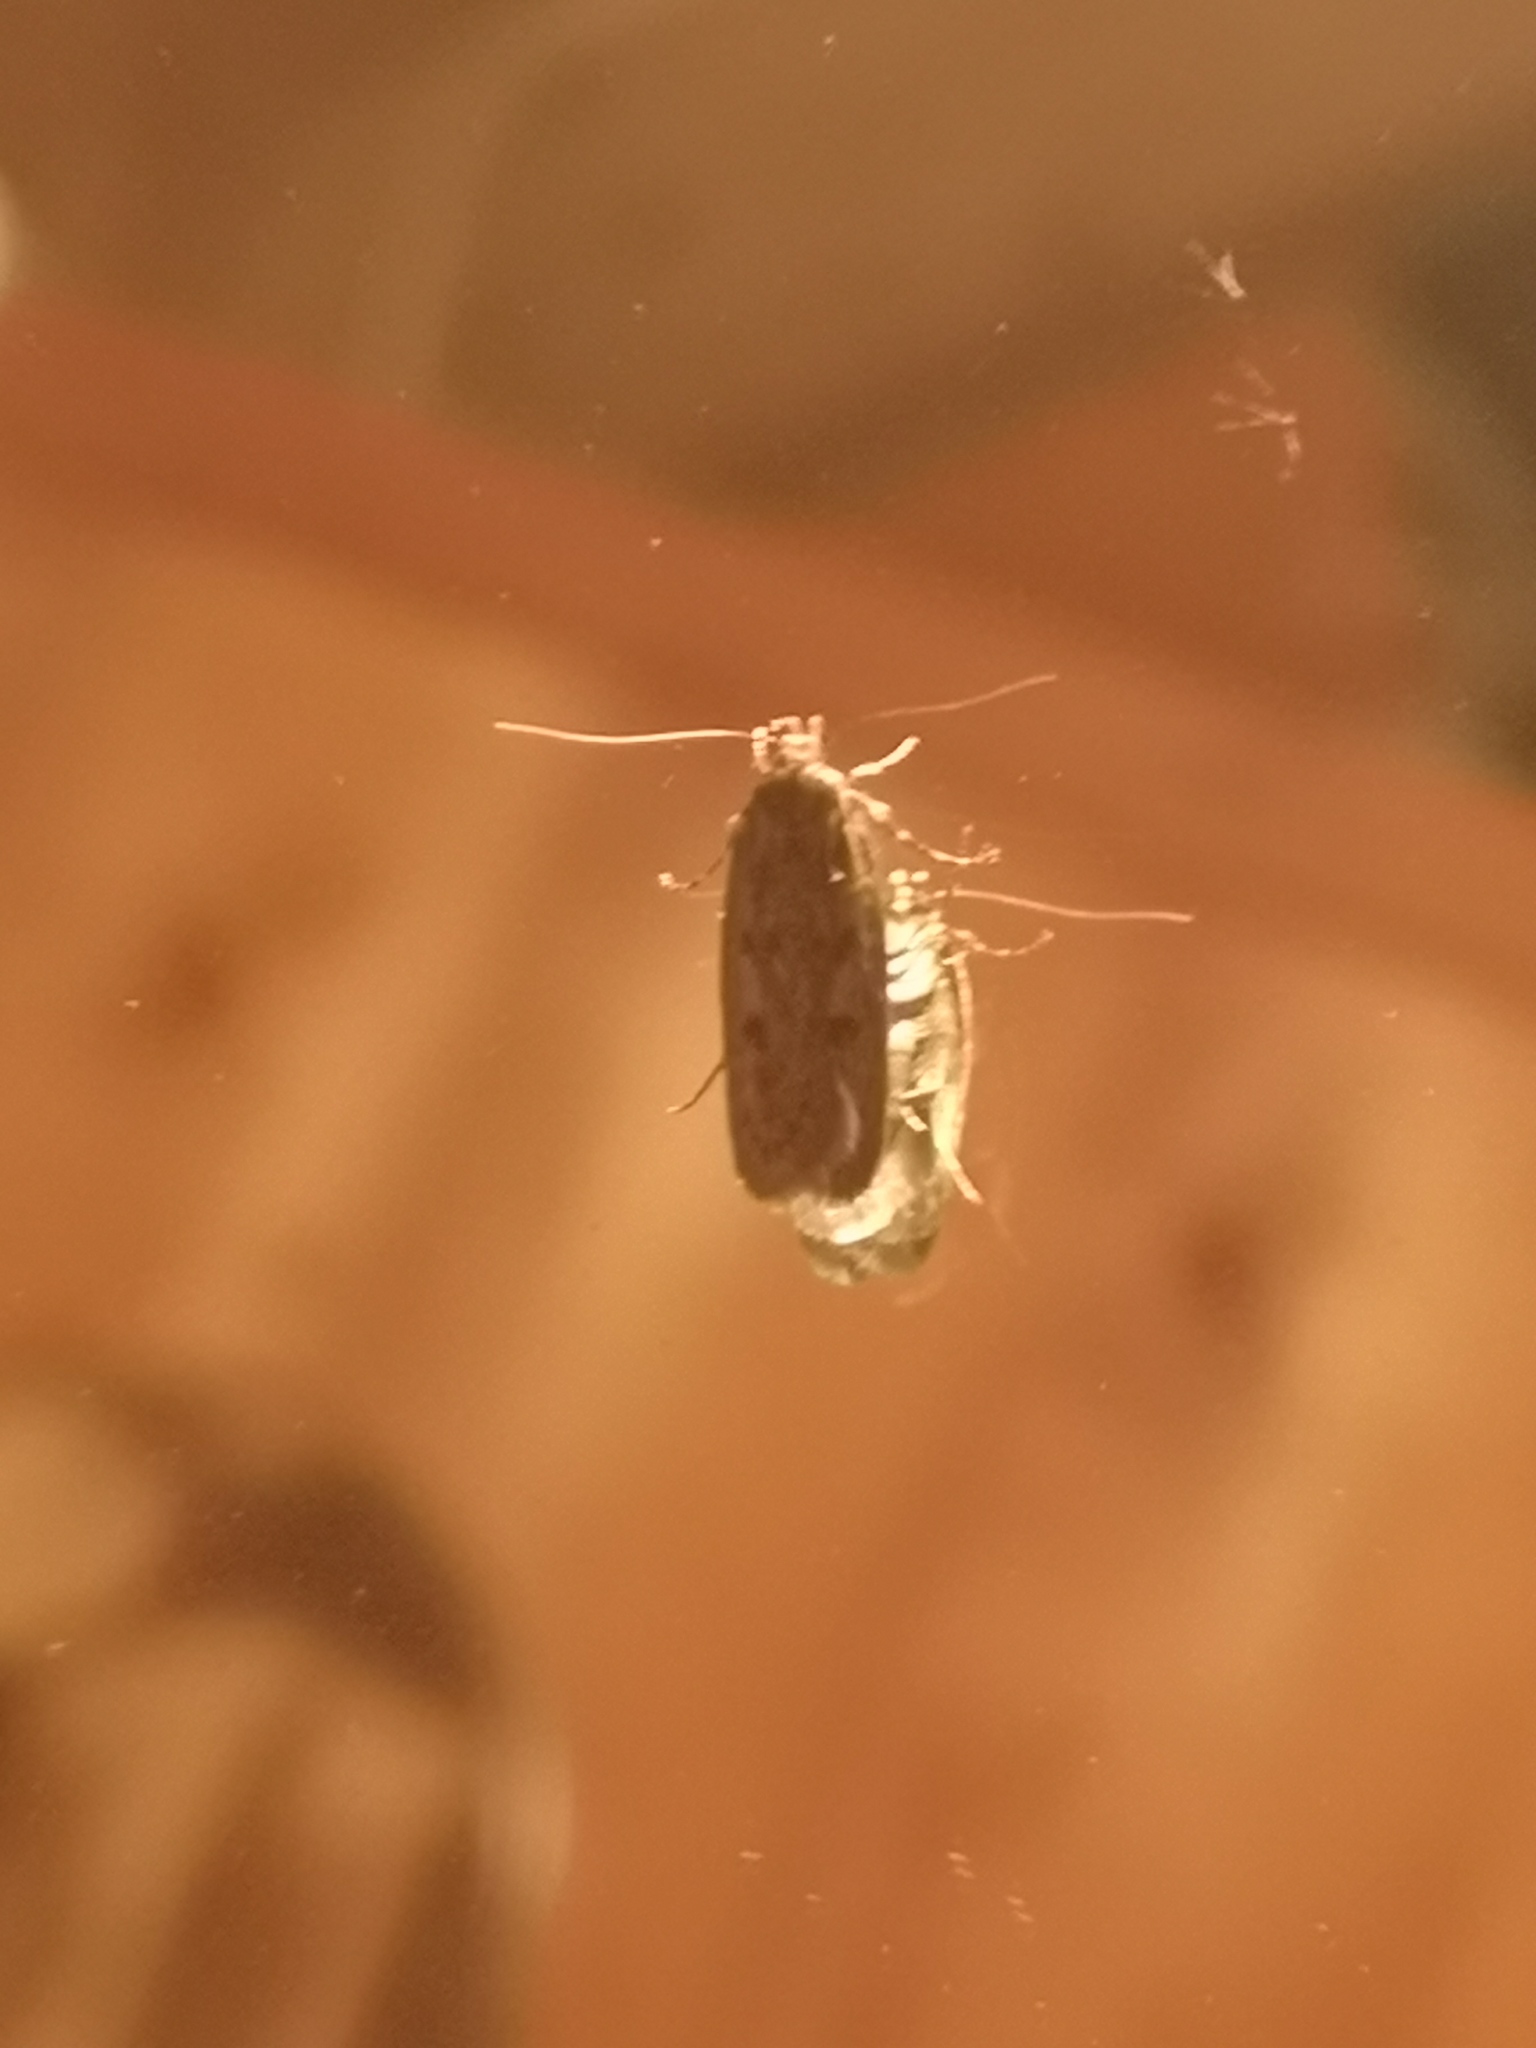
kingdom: Animalia
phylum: Arthropoda
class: Insecta
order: Lepidoptera
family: Oecophoridae
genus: Hofmannophila
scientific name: Hofmannophila pseudospretella
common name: Brown house moth
